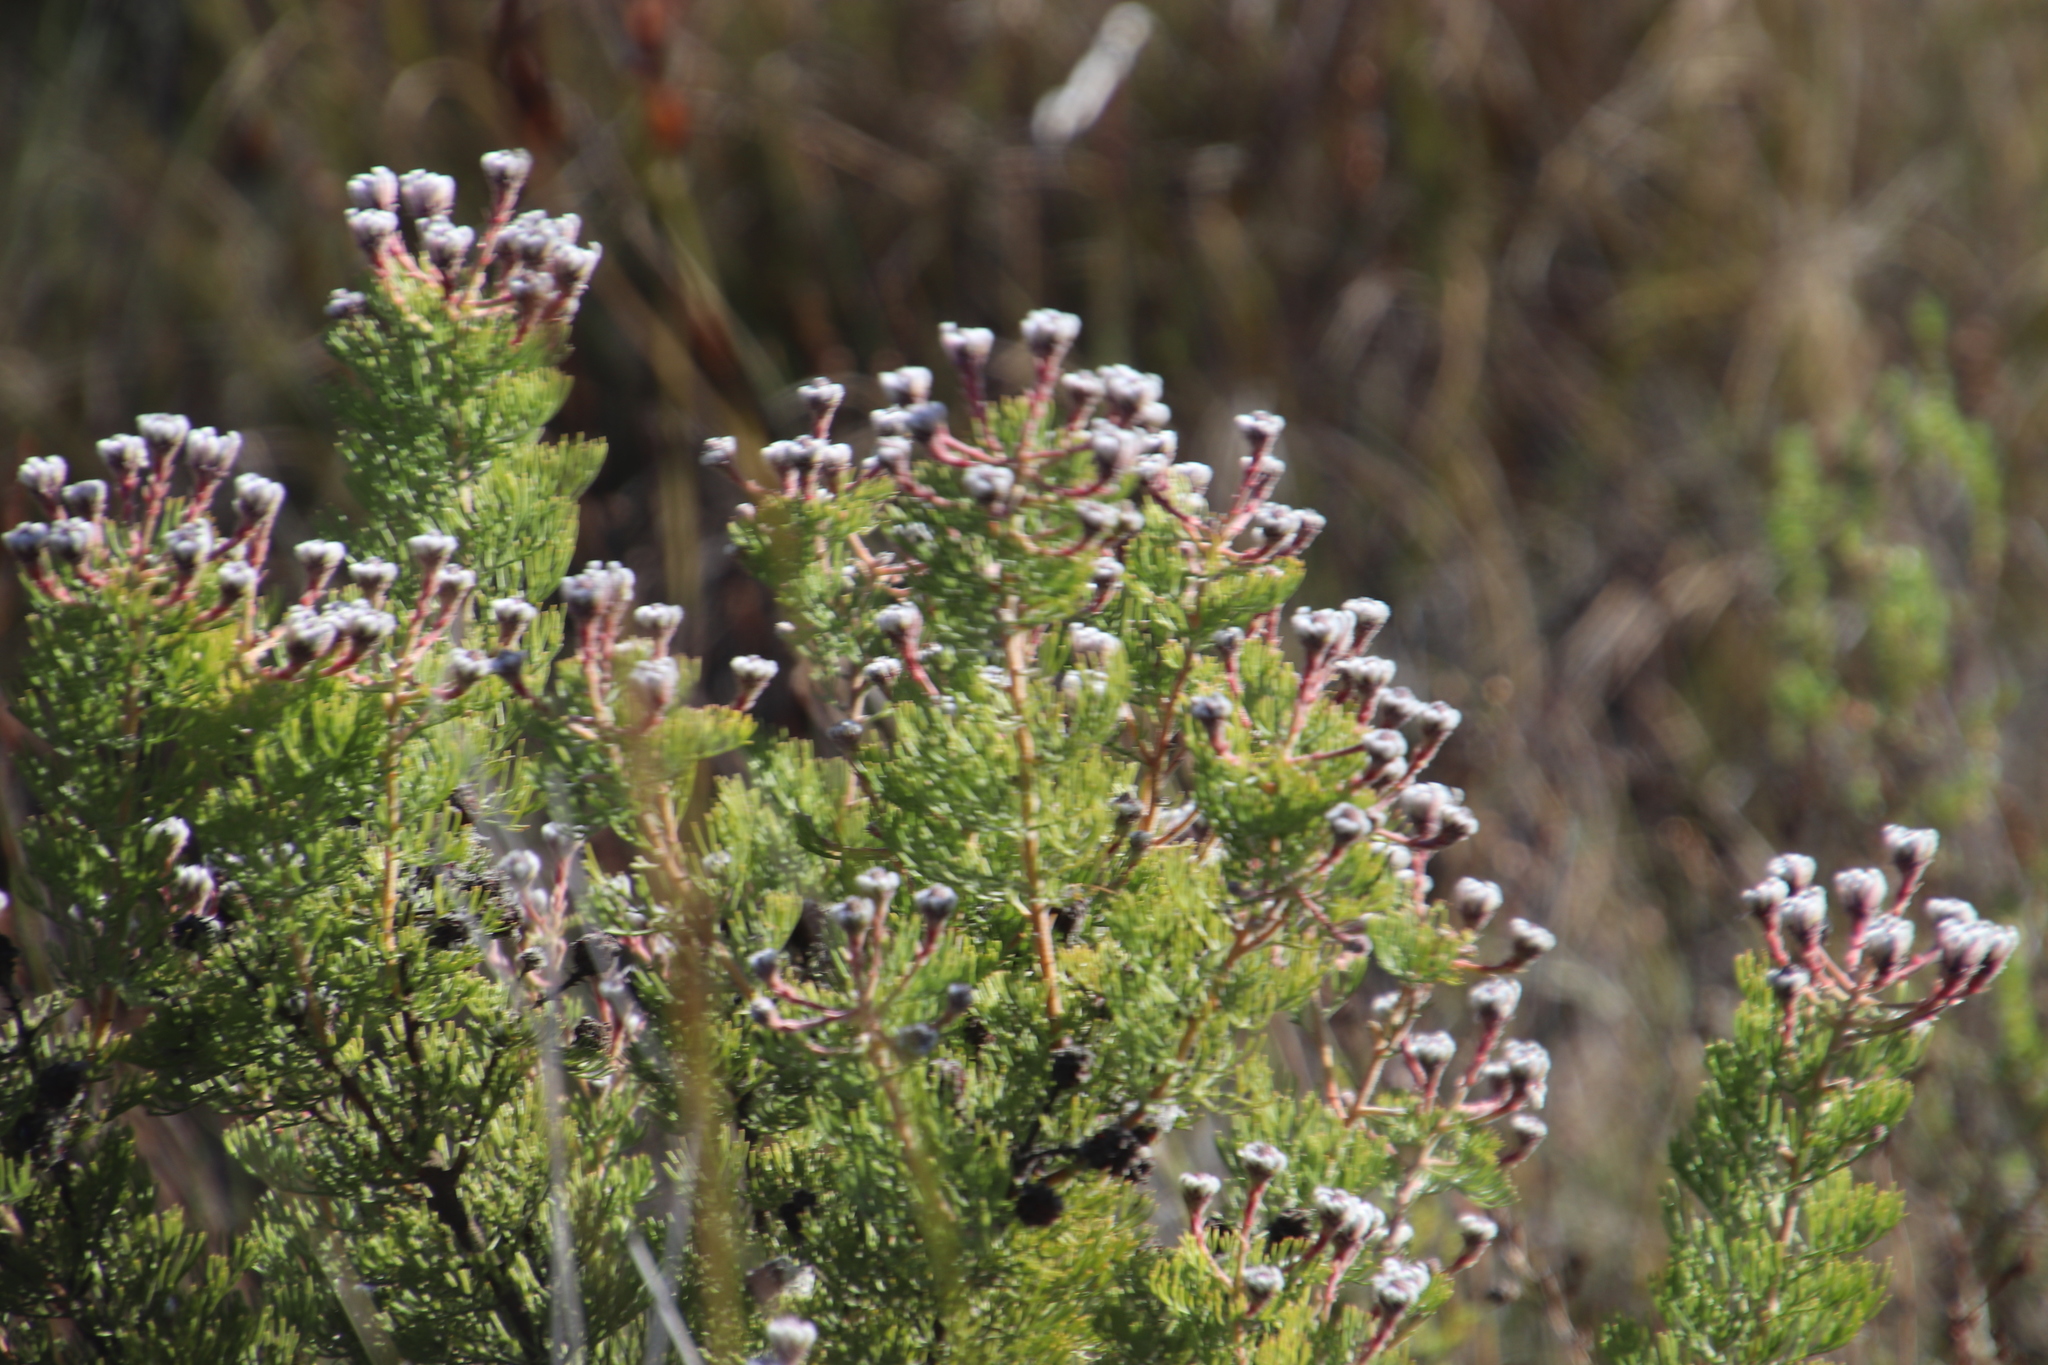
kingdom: Plantae
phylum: Tracheophyta
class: Magnoliopsida
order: Proteales
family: Proteaceae
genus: Serruria
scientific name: Serruria aitonii
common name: Marshmallow spiderhead
